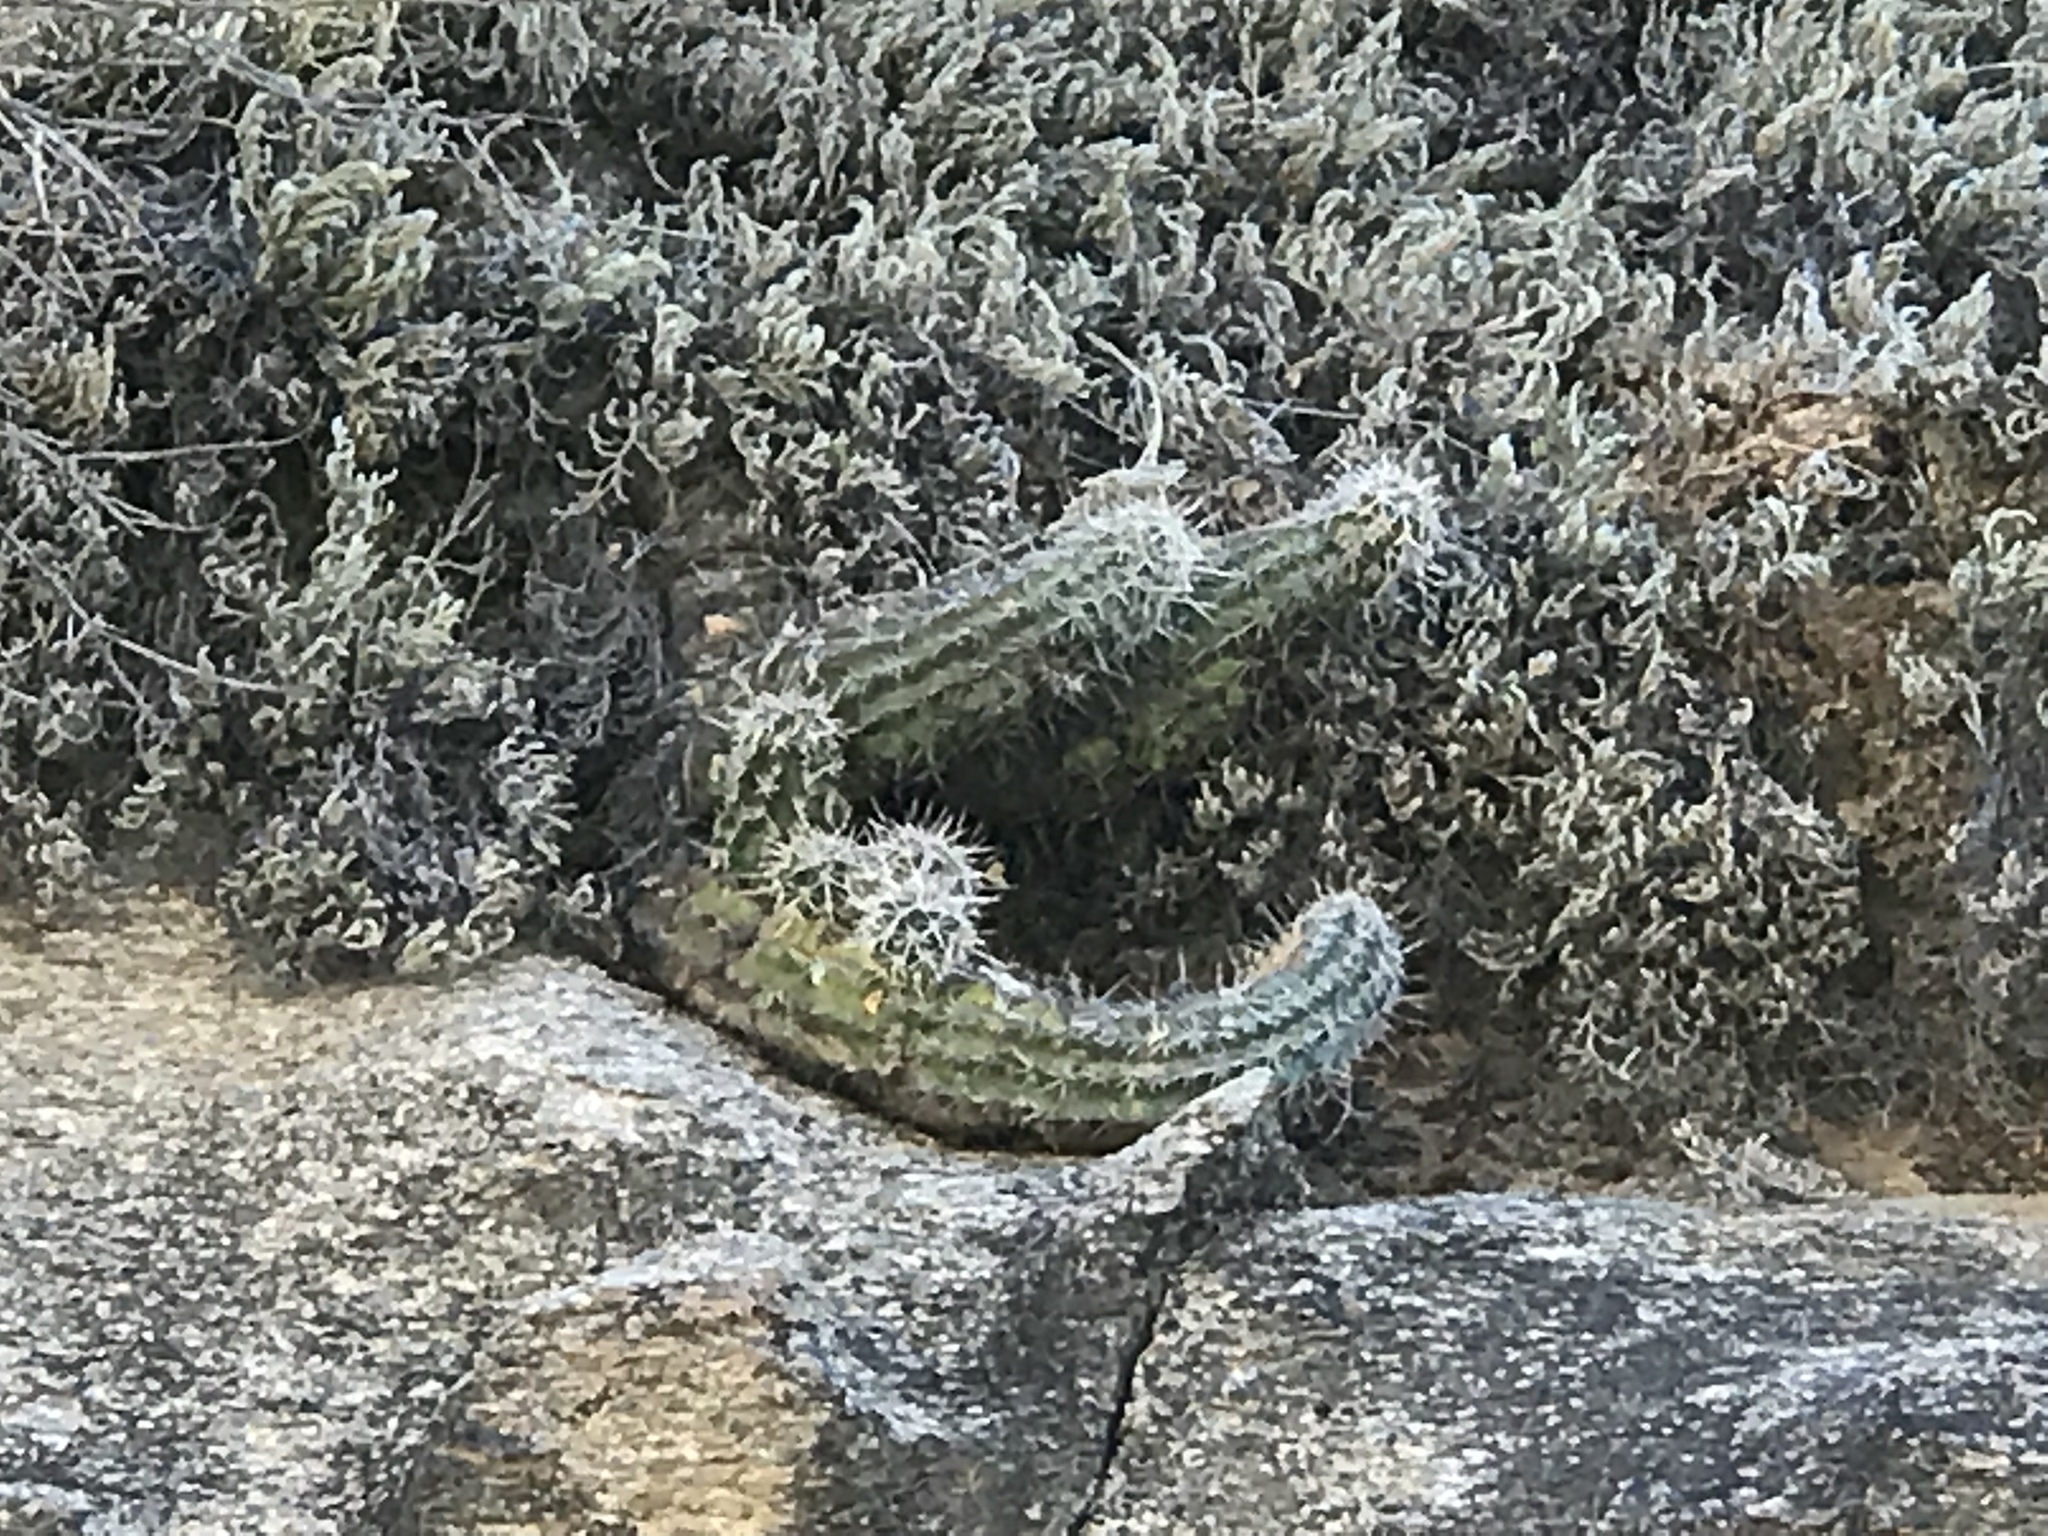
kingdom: Plantae
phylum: Tracheophyta
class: Magnoliopsida
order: Caryophyllales
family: Cactaceae
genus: Echinocereus
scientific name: Echinocereus fasciculatus
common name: Bundle hedgehog
